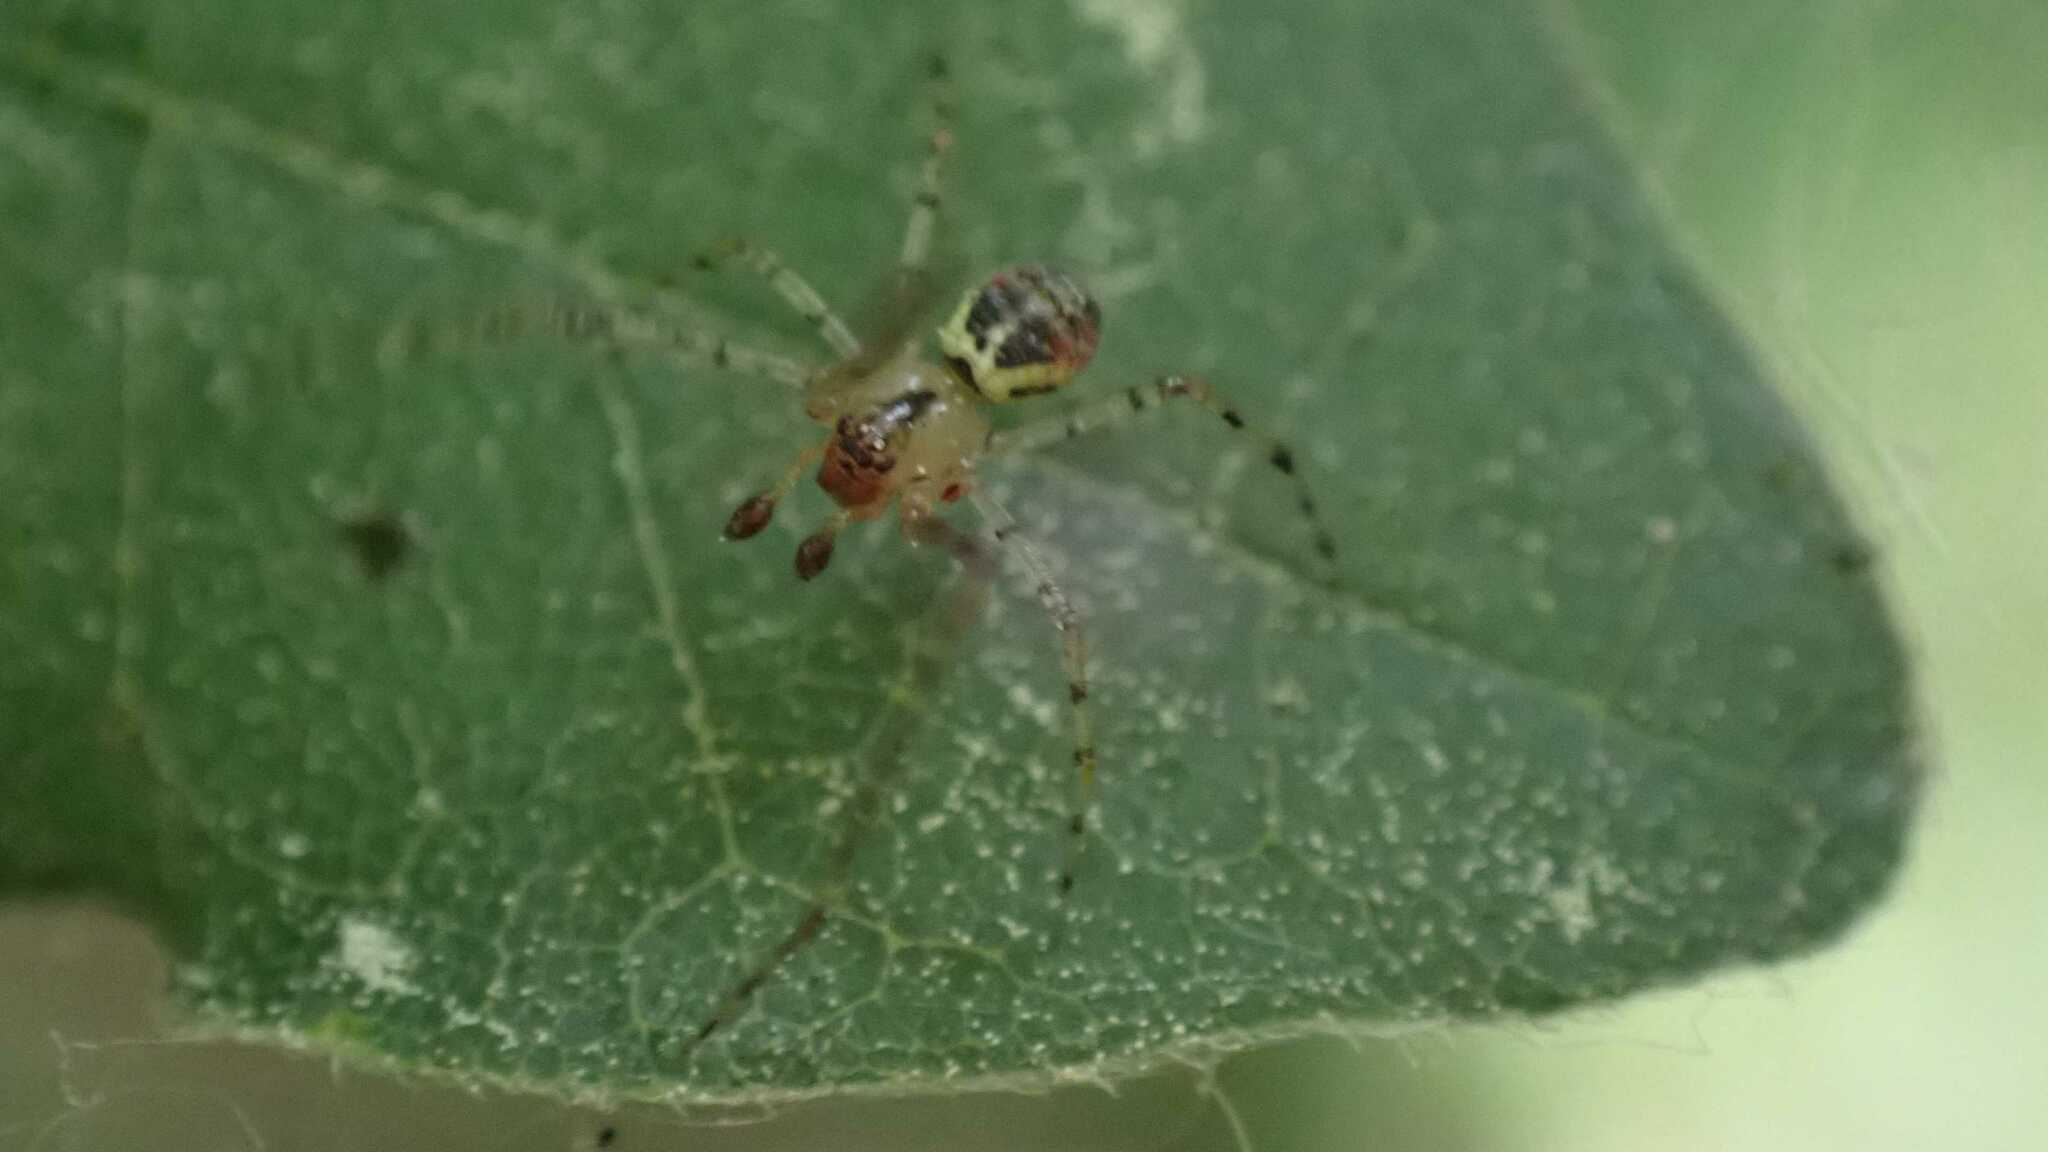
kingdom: Animalia
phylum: Arthropoda
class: Arachnida
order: Araneae
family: Theridiidae
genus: Platnickina
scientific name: Platnickina tincta
